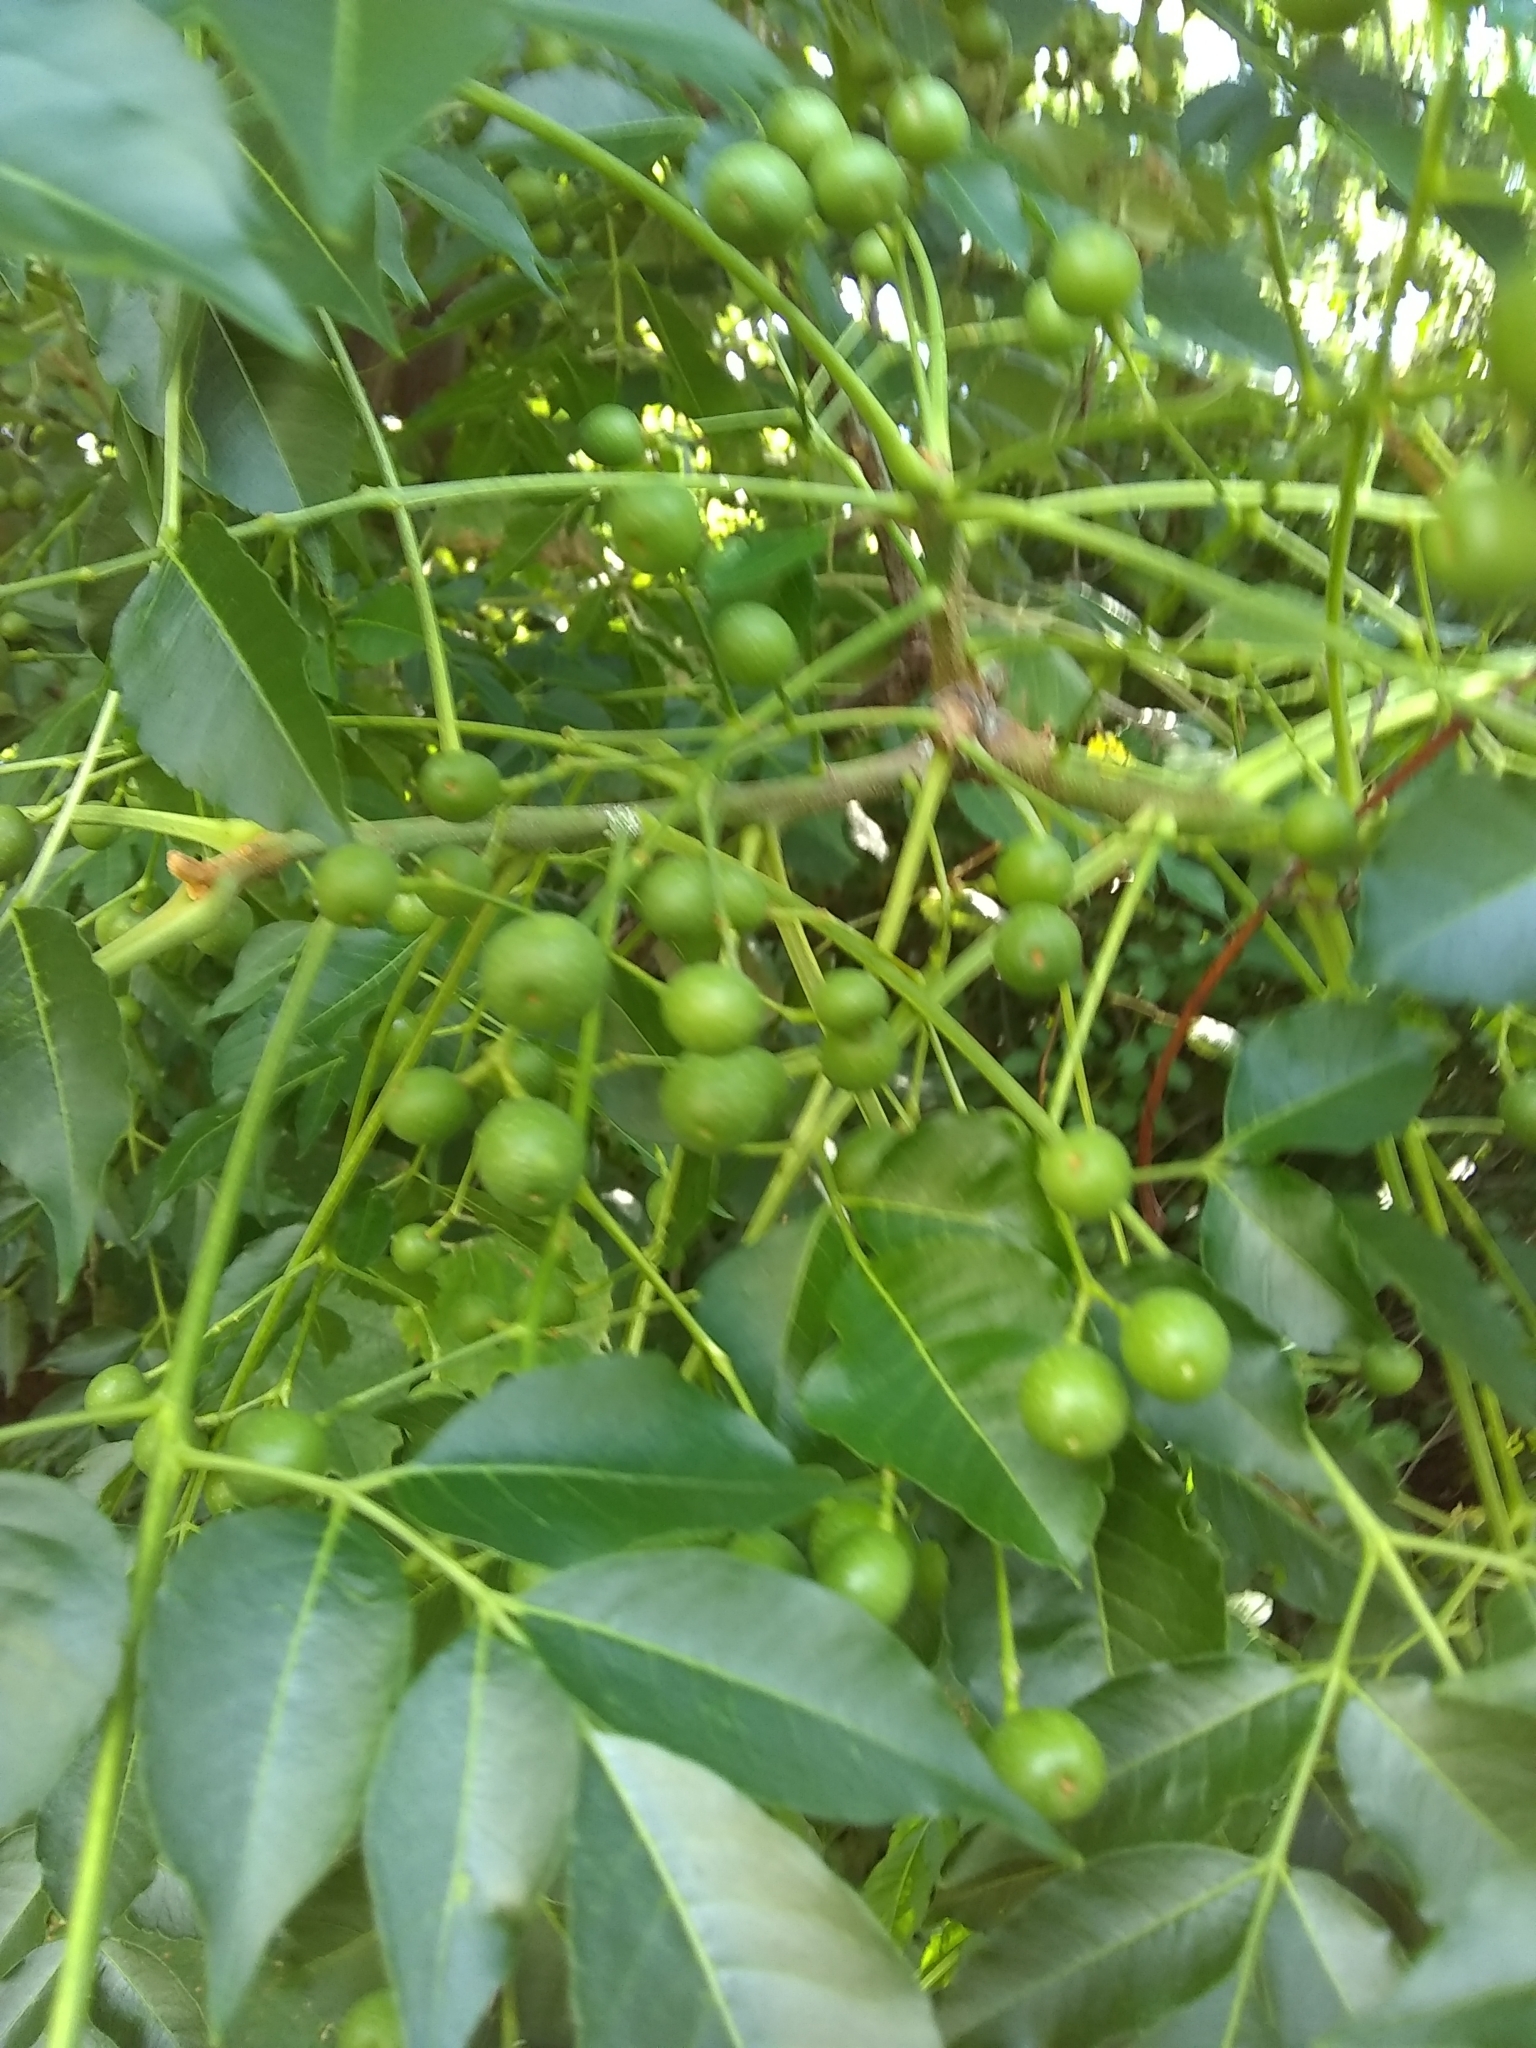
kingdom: Plantae
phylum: Tracheophyta
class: Magnoliopsida
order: Sapindales
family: Meliaceae
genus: Melia
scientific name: Melia azedarach
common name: Chinaberrytree
